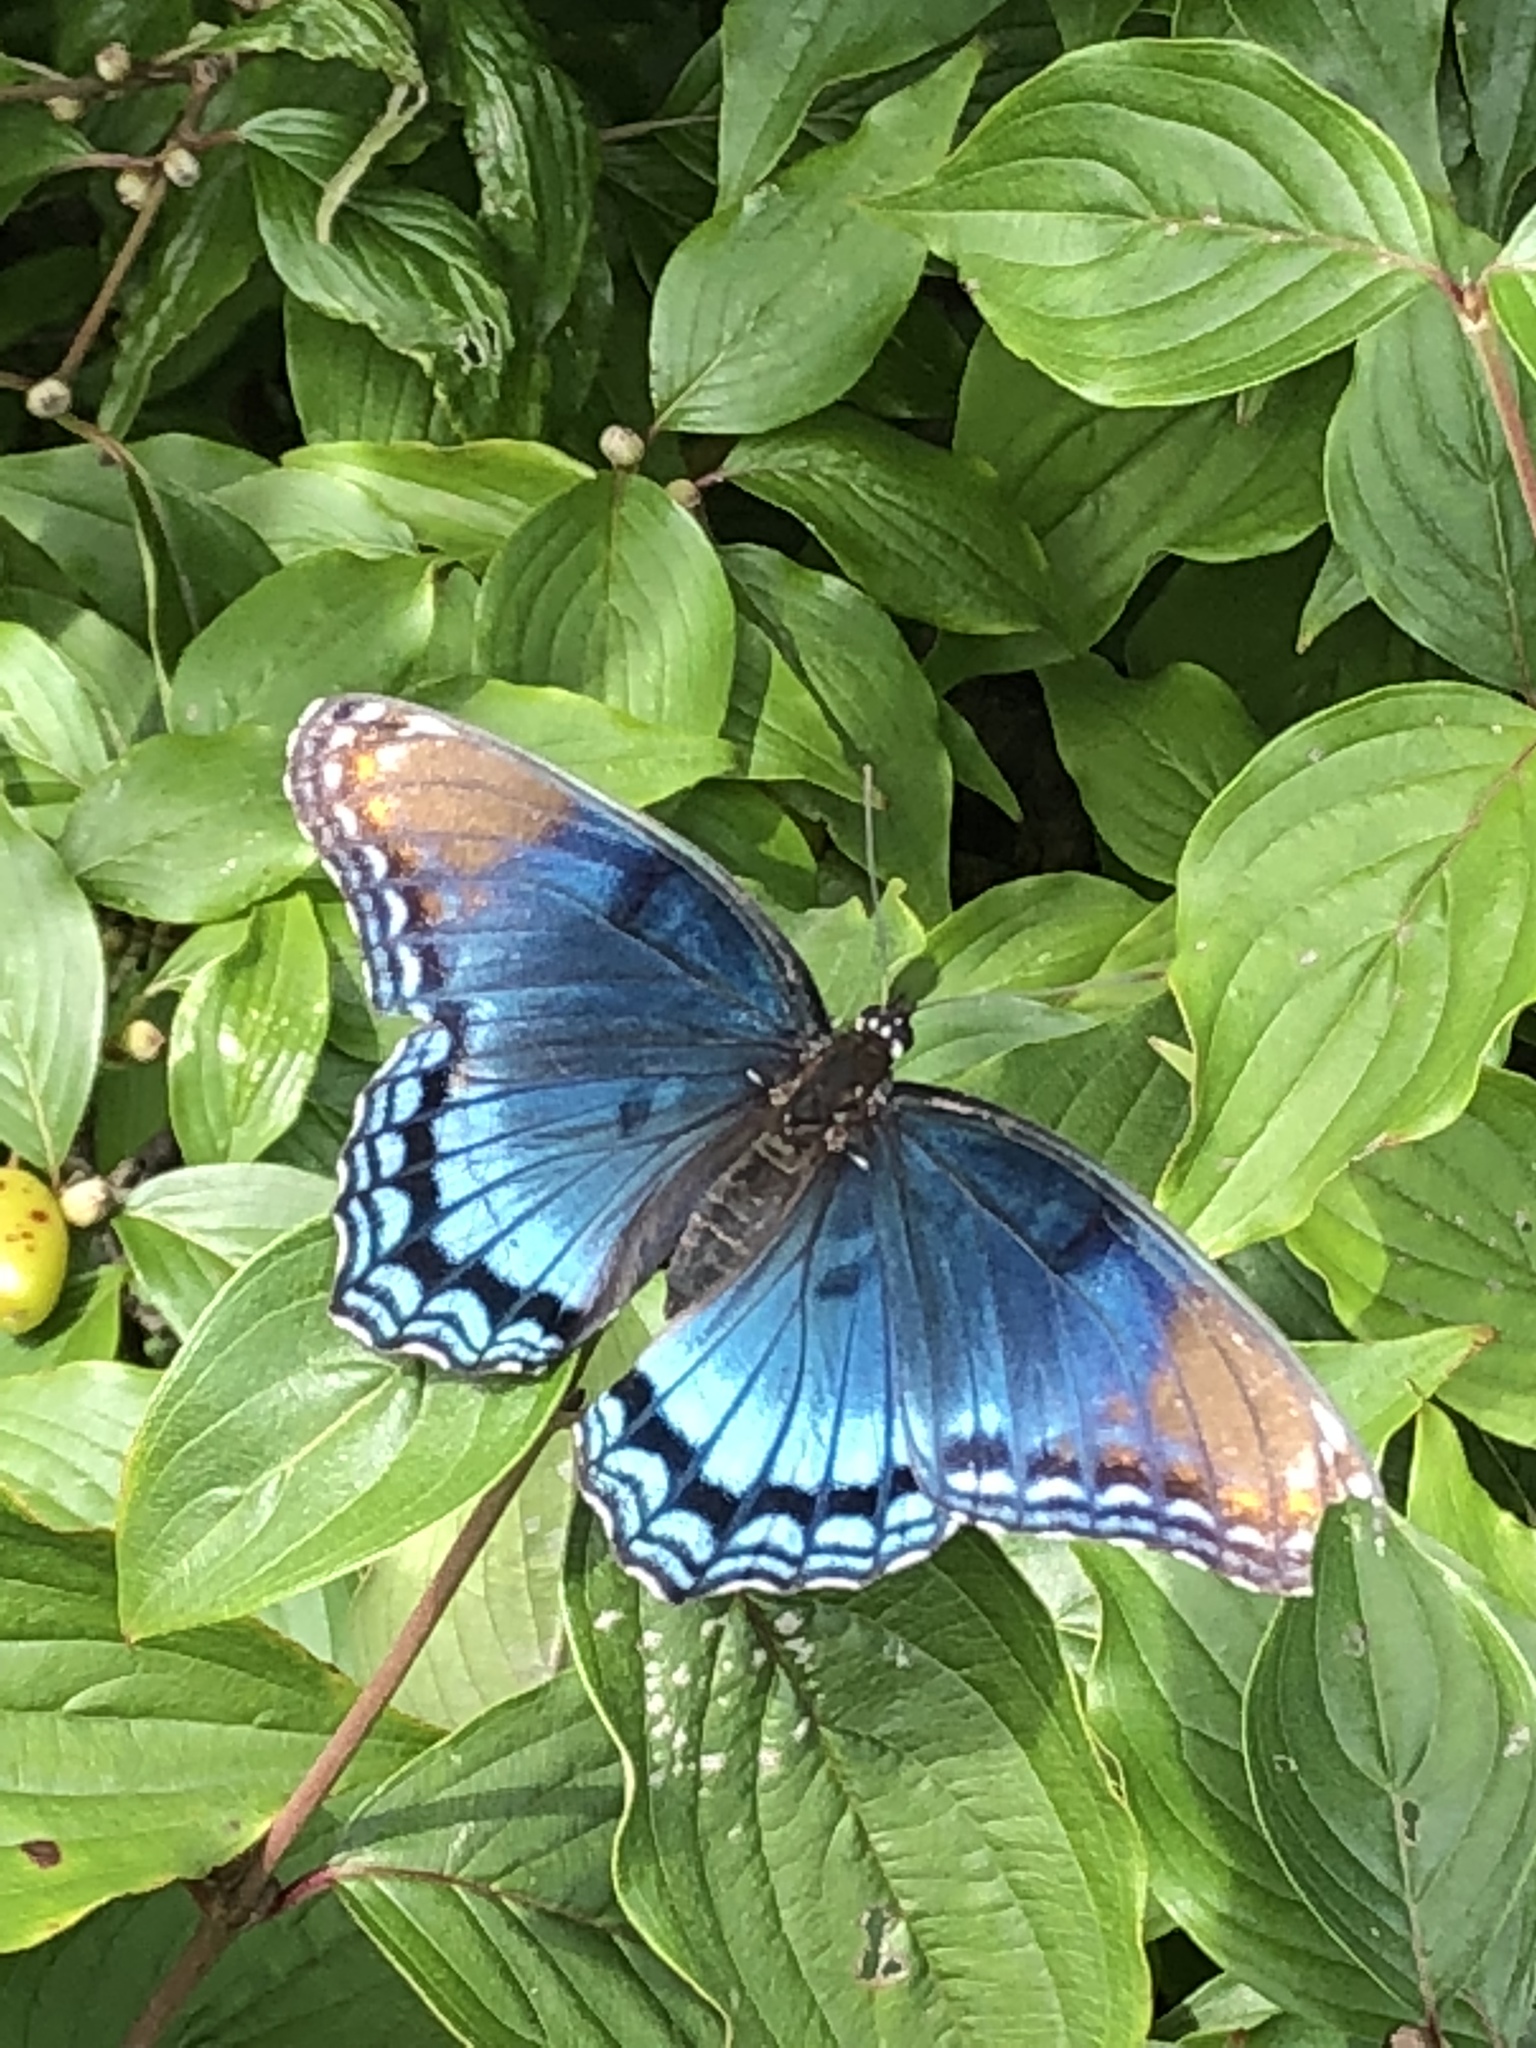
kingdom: Animalia
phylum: Arthropoda
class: Insecta
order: Lepidoptera
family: Nymphalidae
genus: Limenitis
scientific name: Limenitis astyanax
